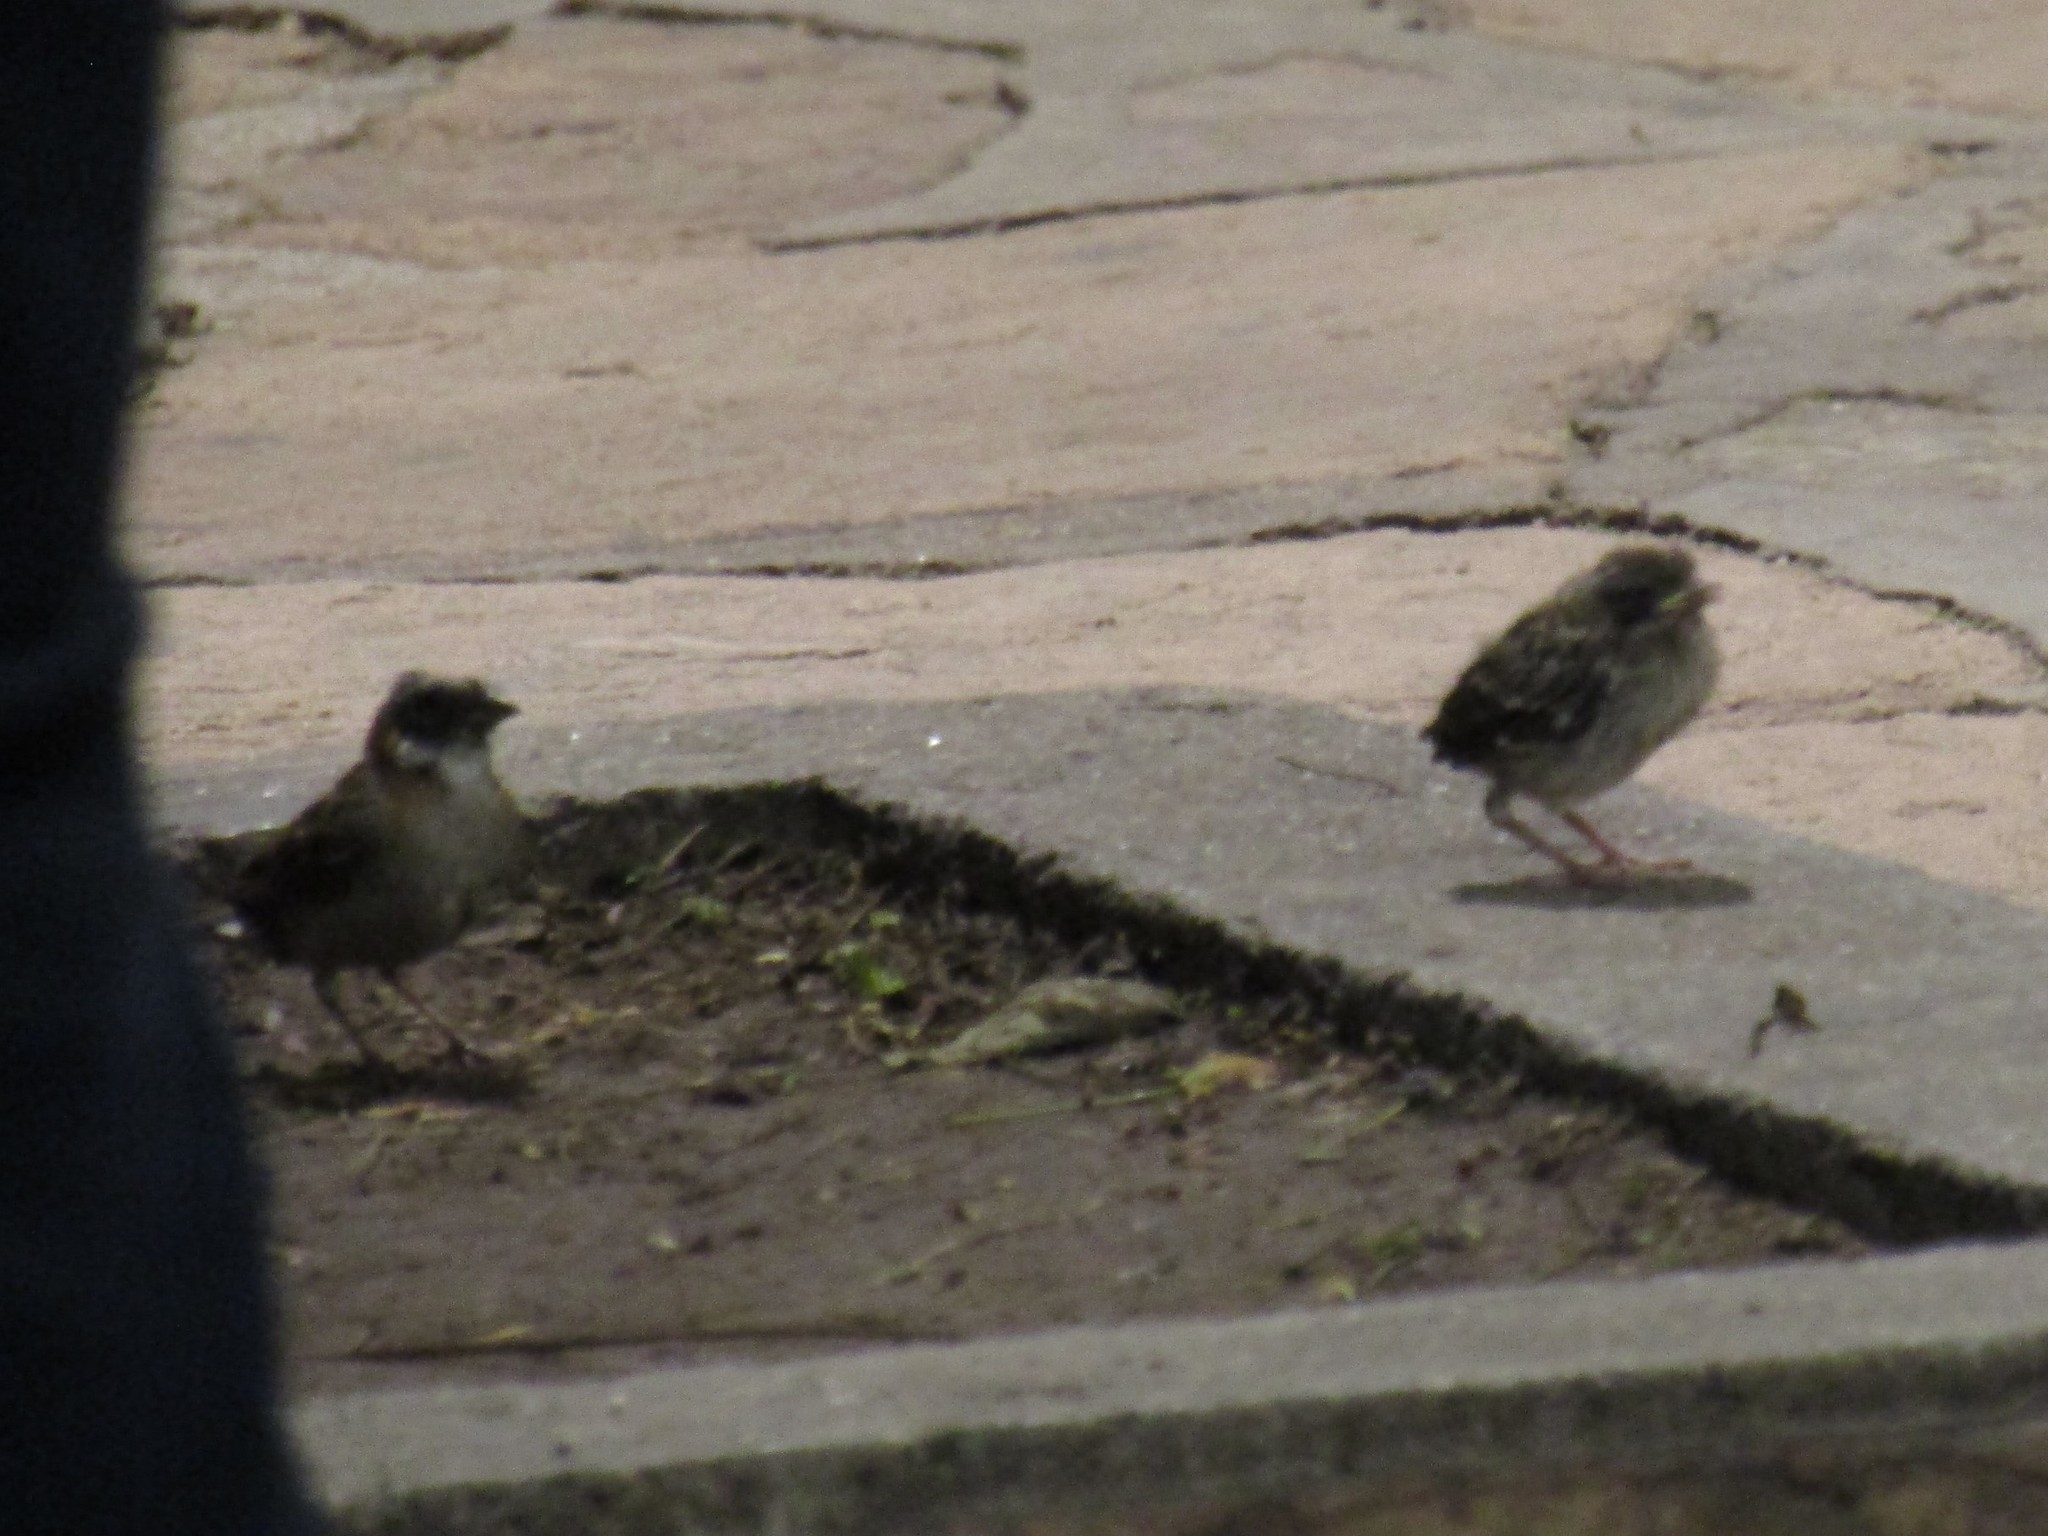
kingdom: Animalia
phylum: Chordata
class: Aves
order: Passeriformes
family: Passerellidae
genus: Zonotrichia
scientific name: Zonotrichia capensis
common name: Rufous-collared sparrow
